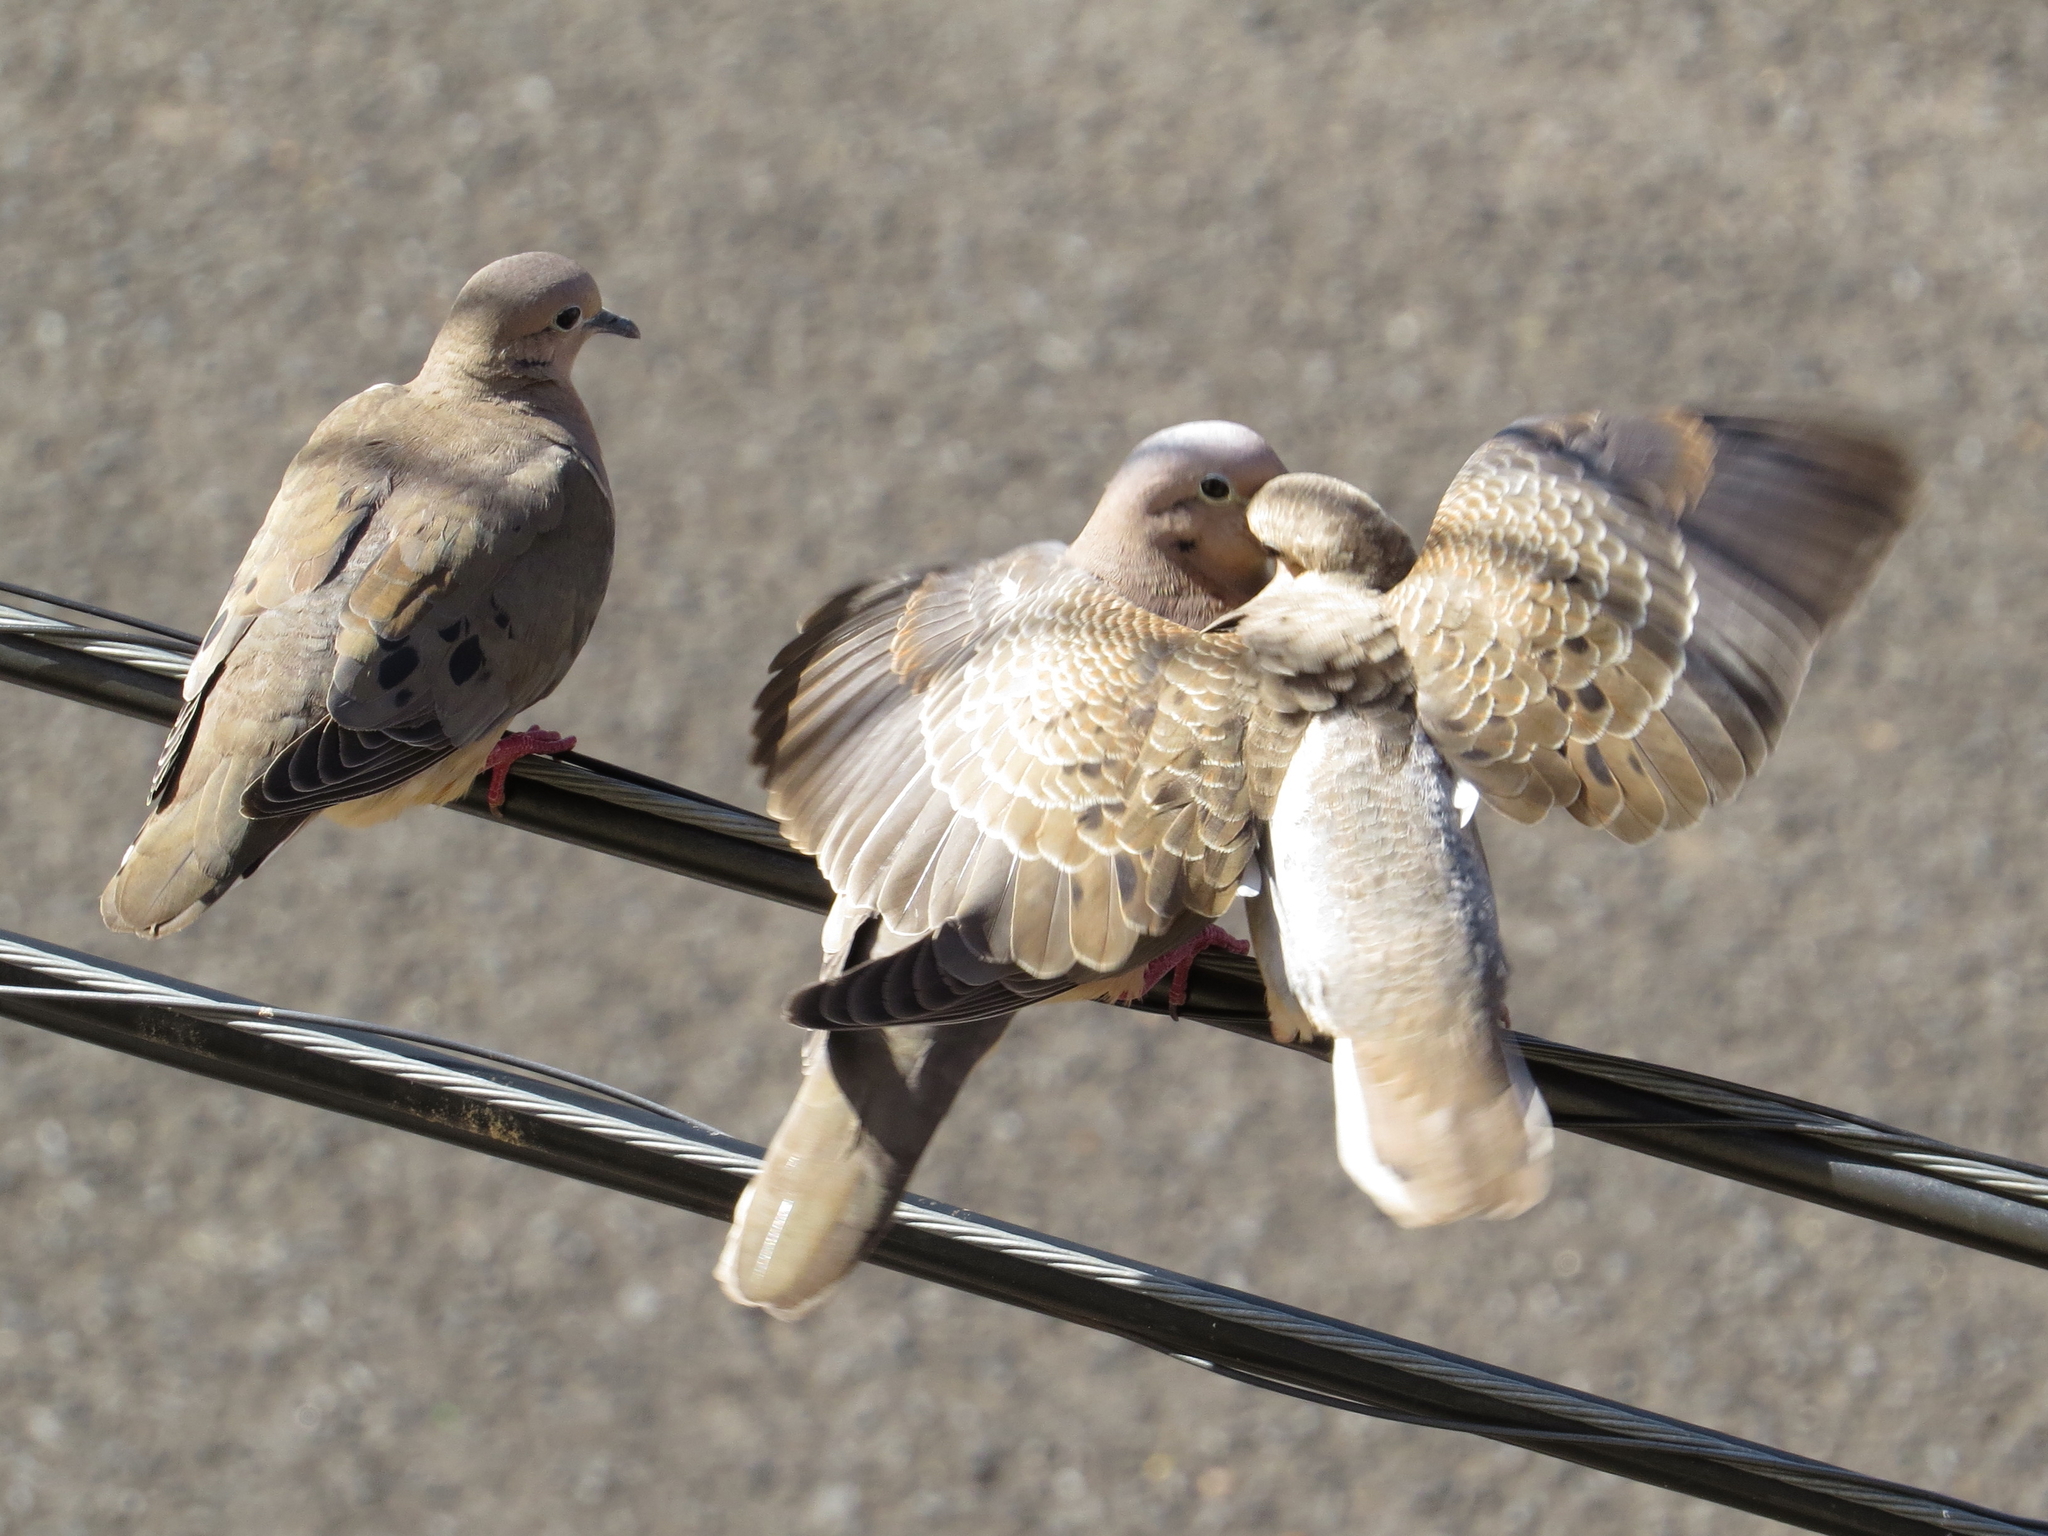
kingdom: Animalia
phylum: Chordata
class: Aves
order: Columbiformes
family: Columbidae
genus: Zenaida
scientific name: Zenaida auriculata
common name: Eared dove
